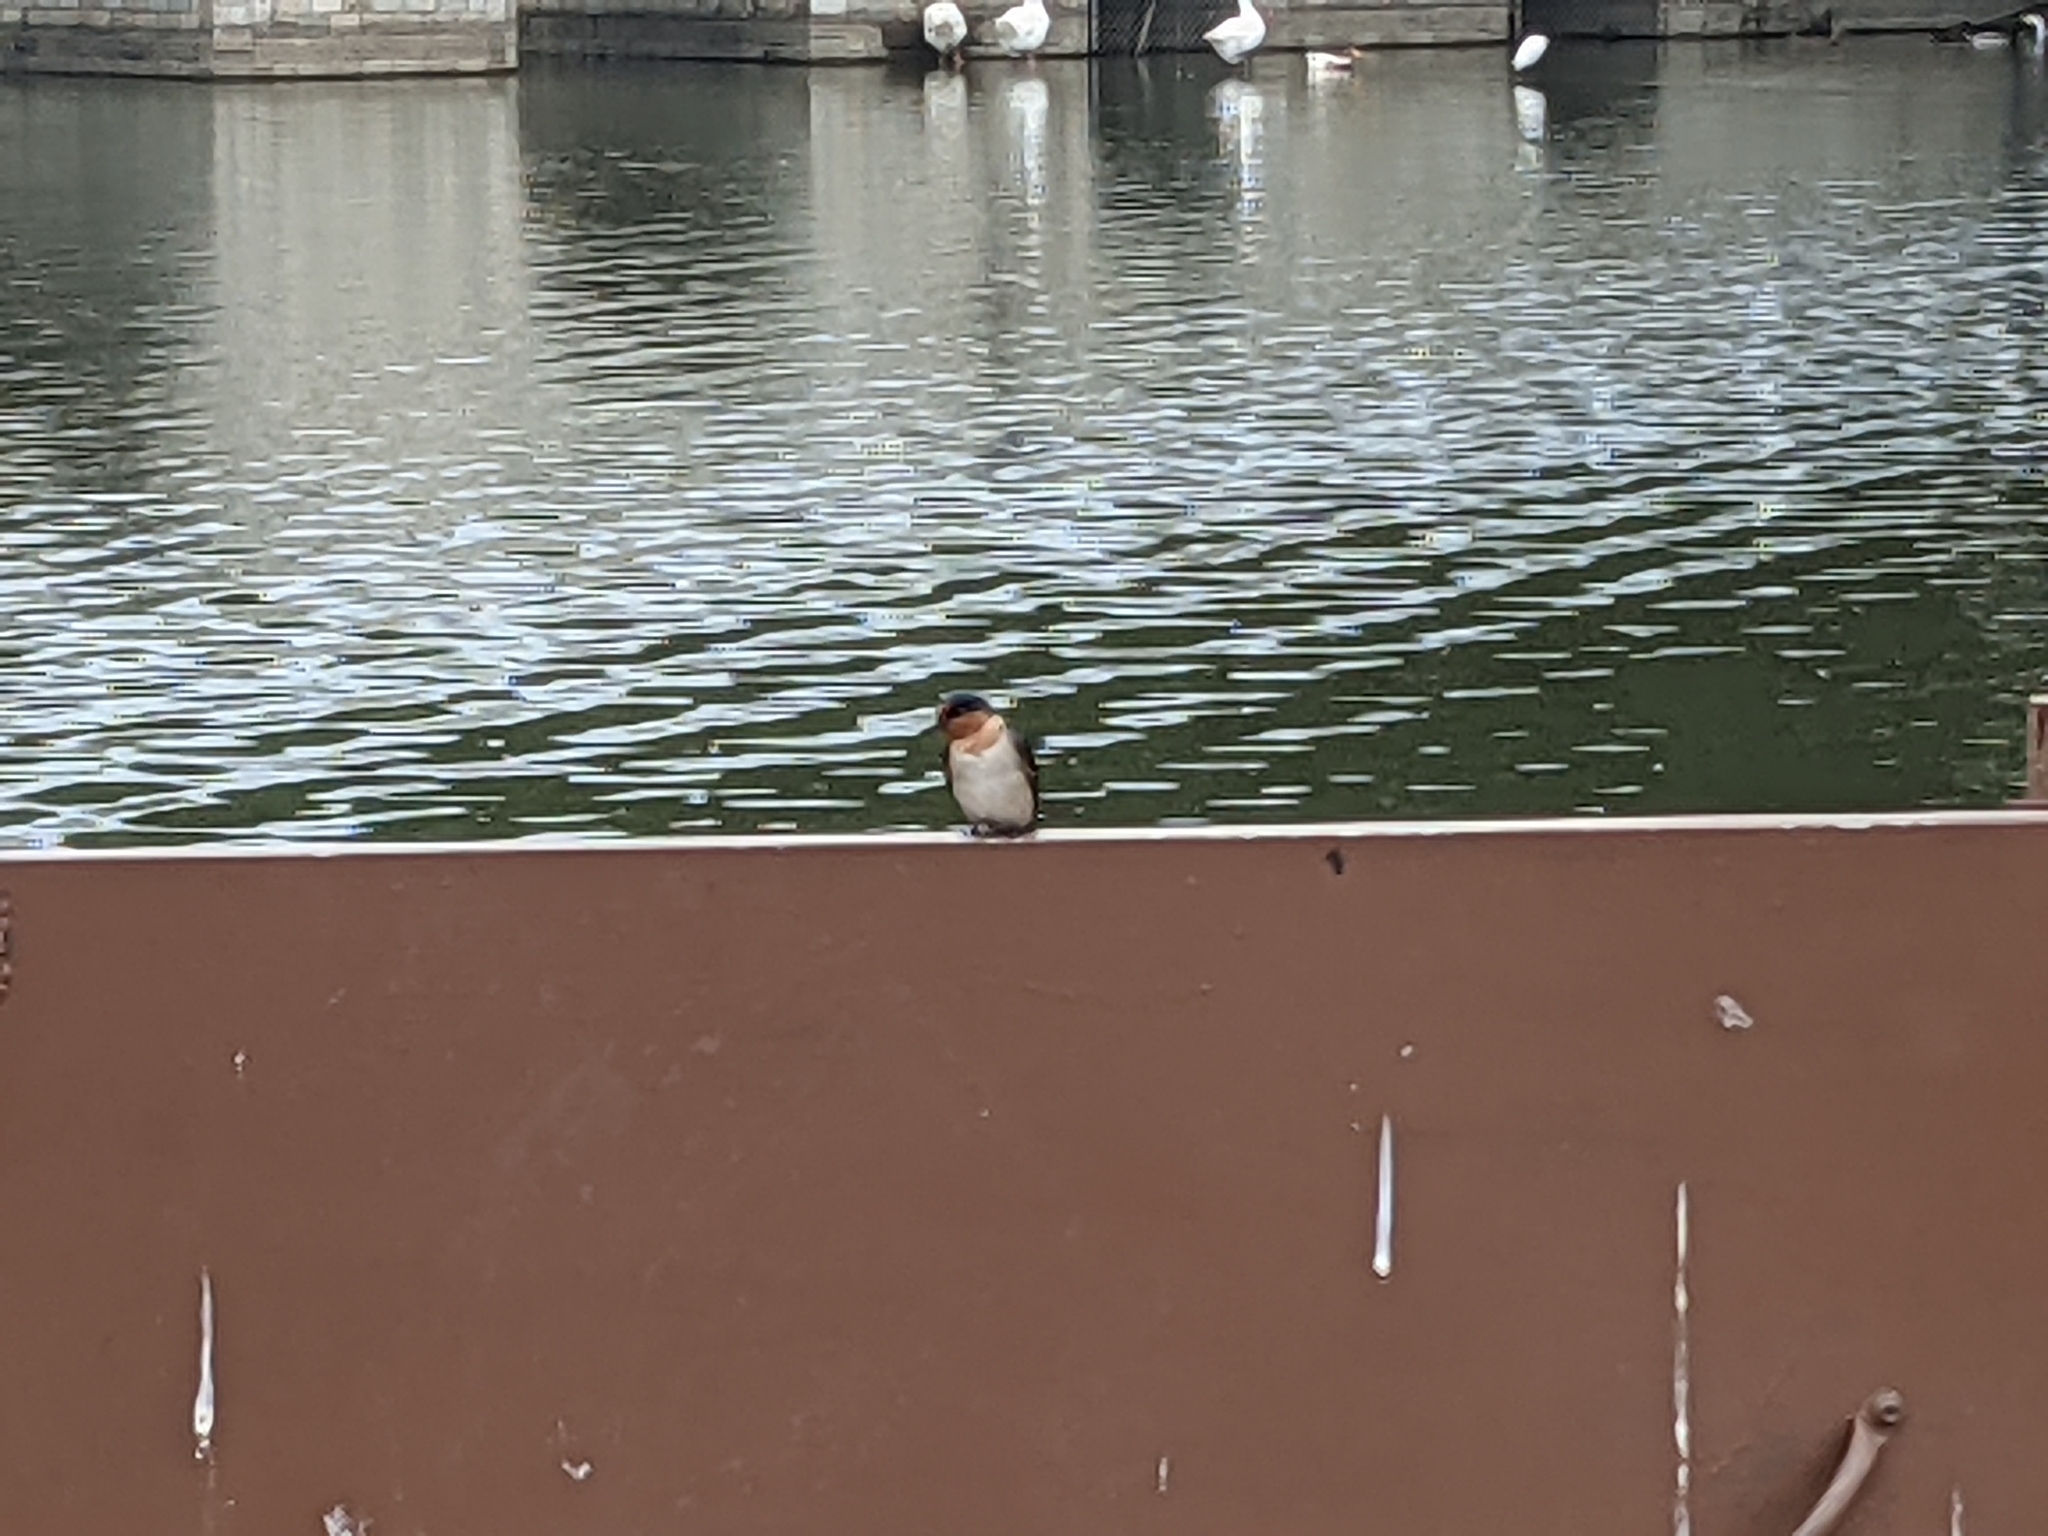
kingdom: Animalia
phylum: Chordata
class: Aves
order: Passeriformes
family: Hirundinidae
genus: Hirundo
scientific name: Hirundo tahitica
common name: Pacific swallow
